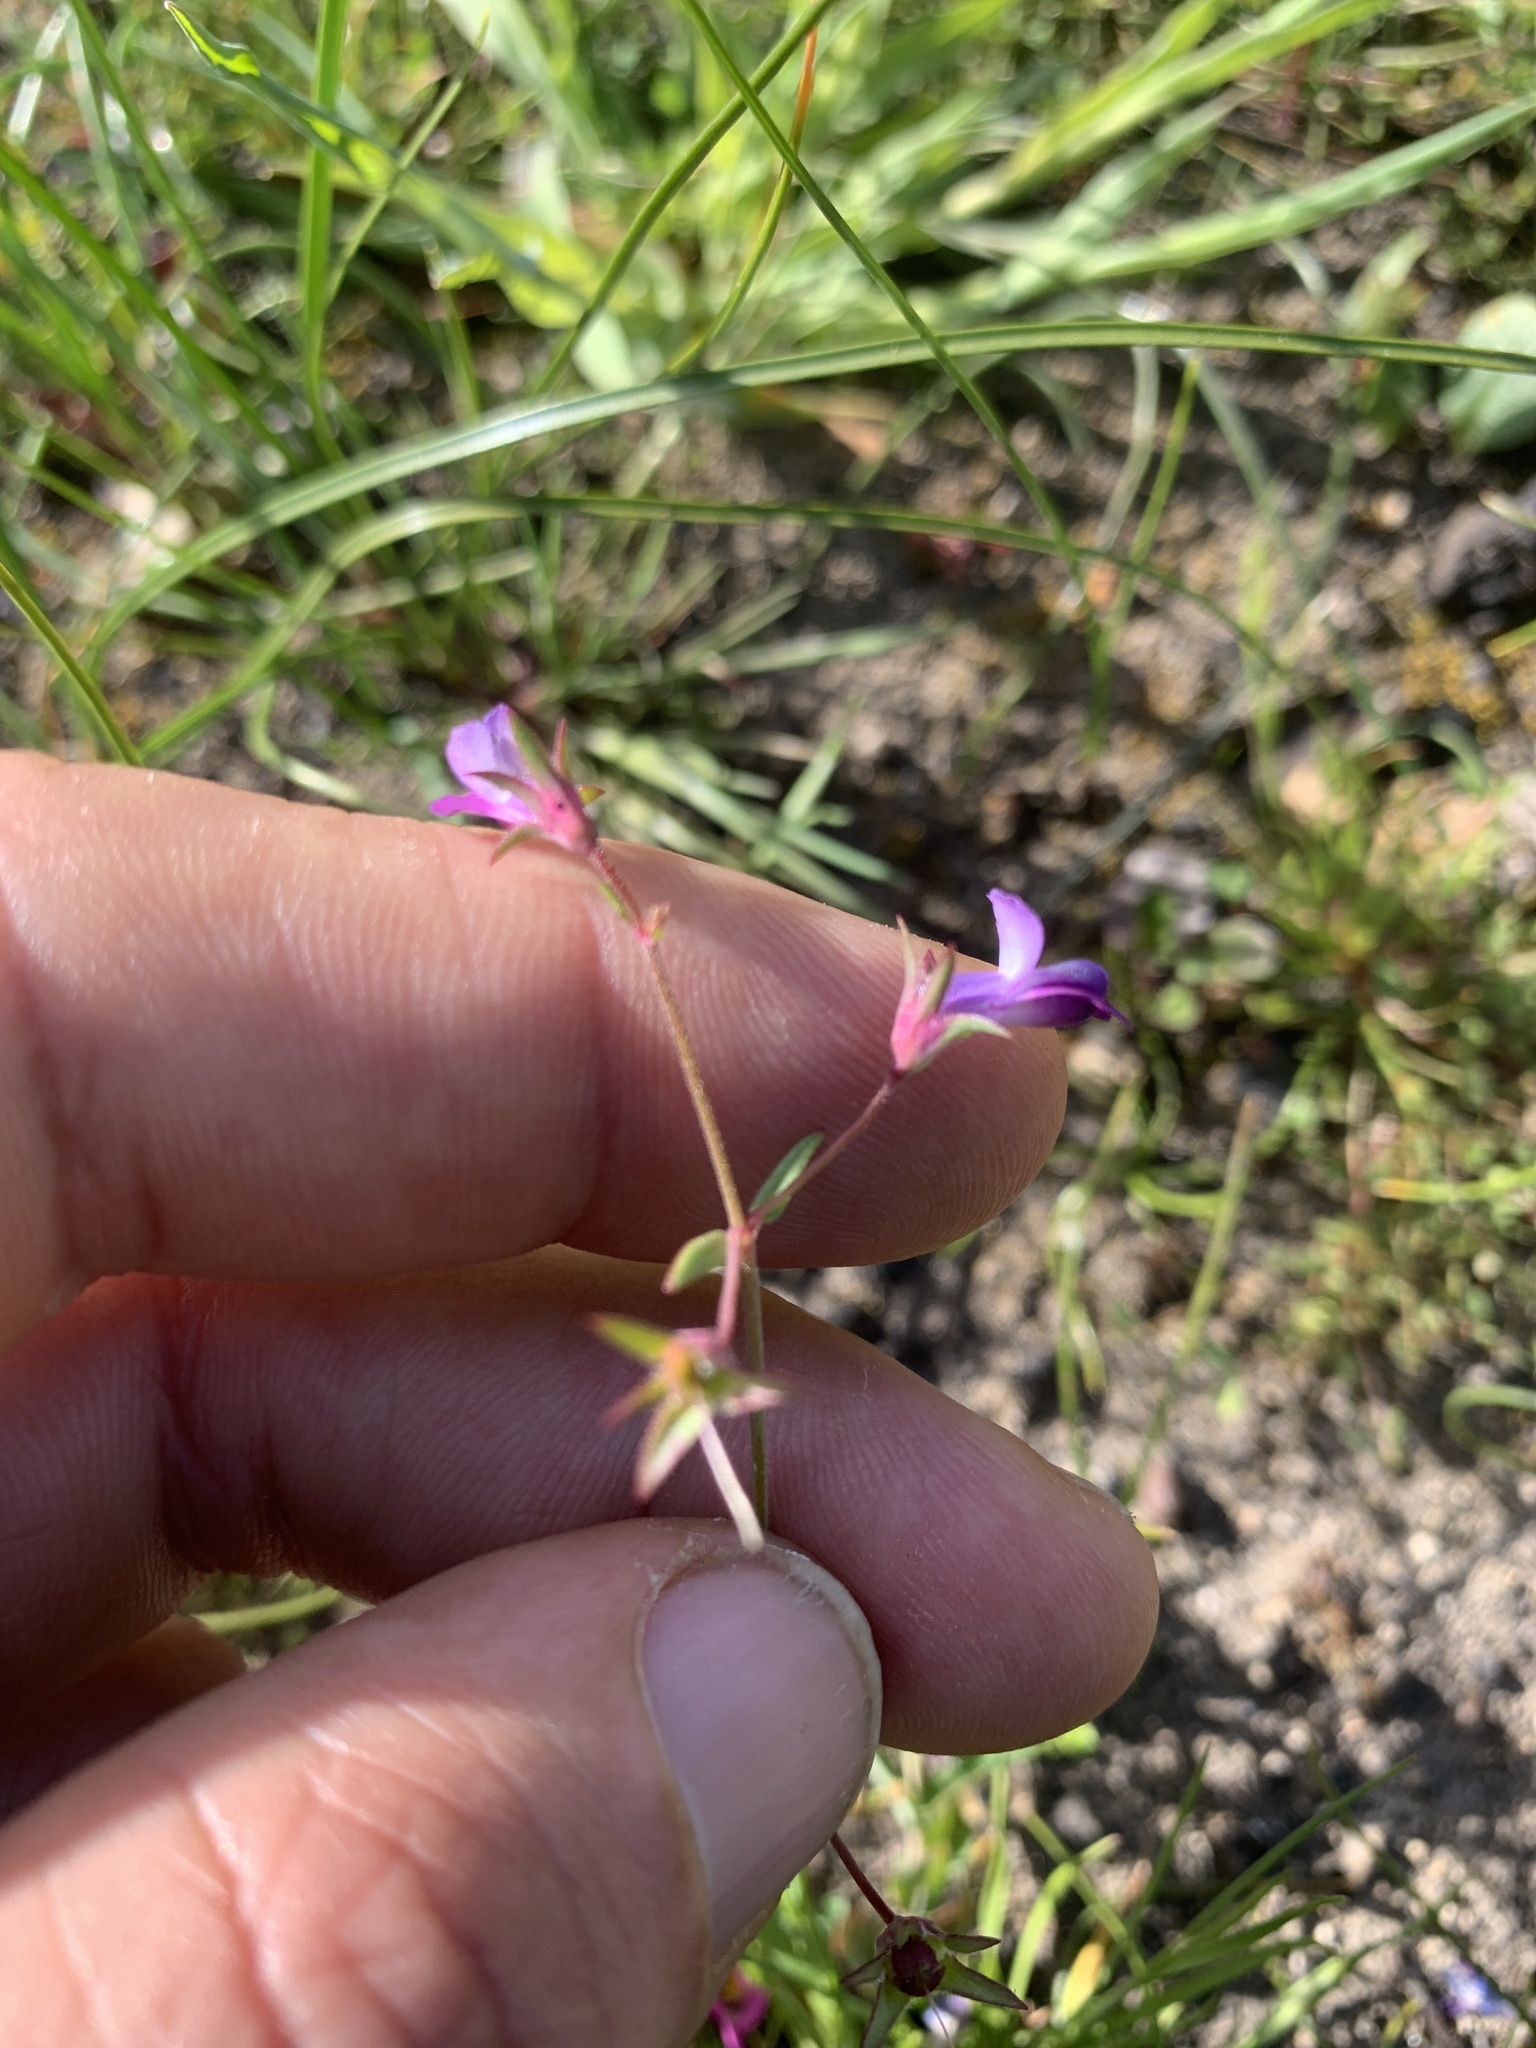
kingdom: Plantae
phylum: Tracheophyta
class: Magnoliopsida
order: Lamiales
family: Plantaginaceae
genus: Collinsia
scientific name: Collinsia sparsiflora
